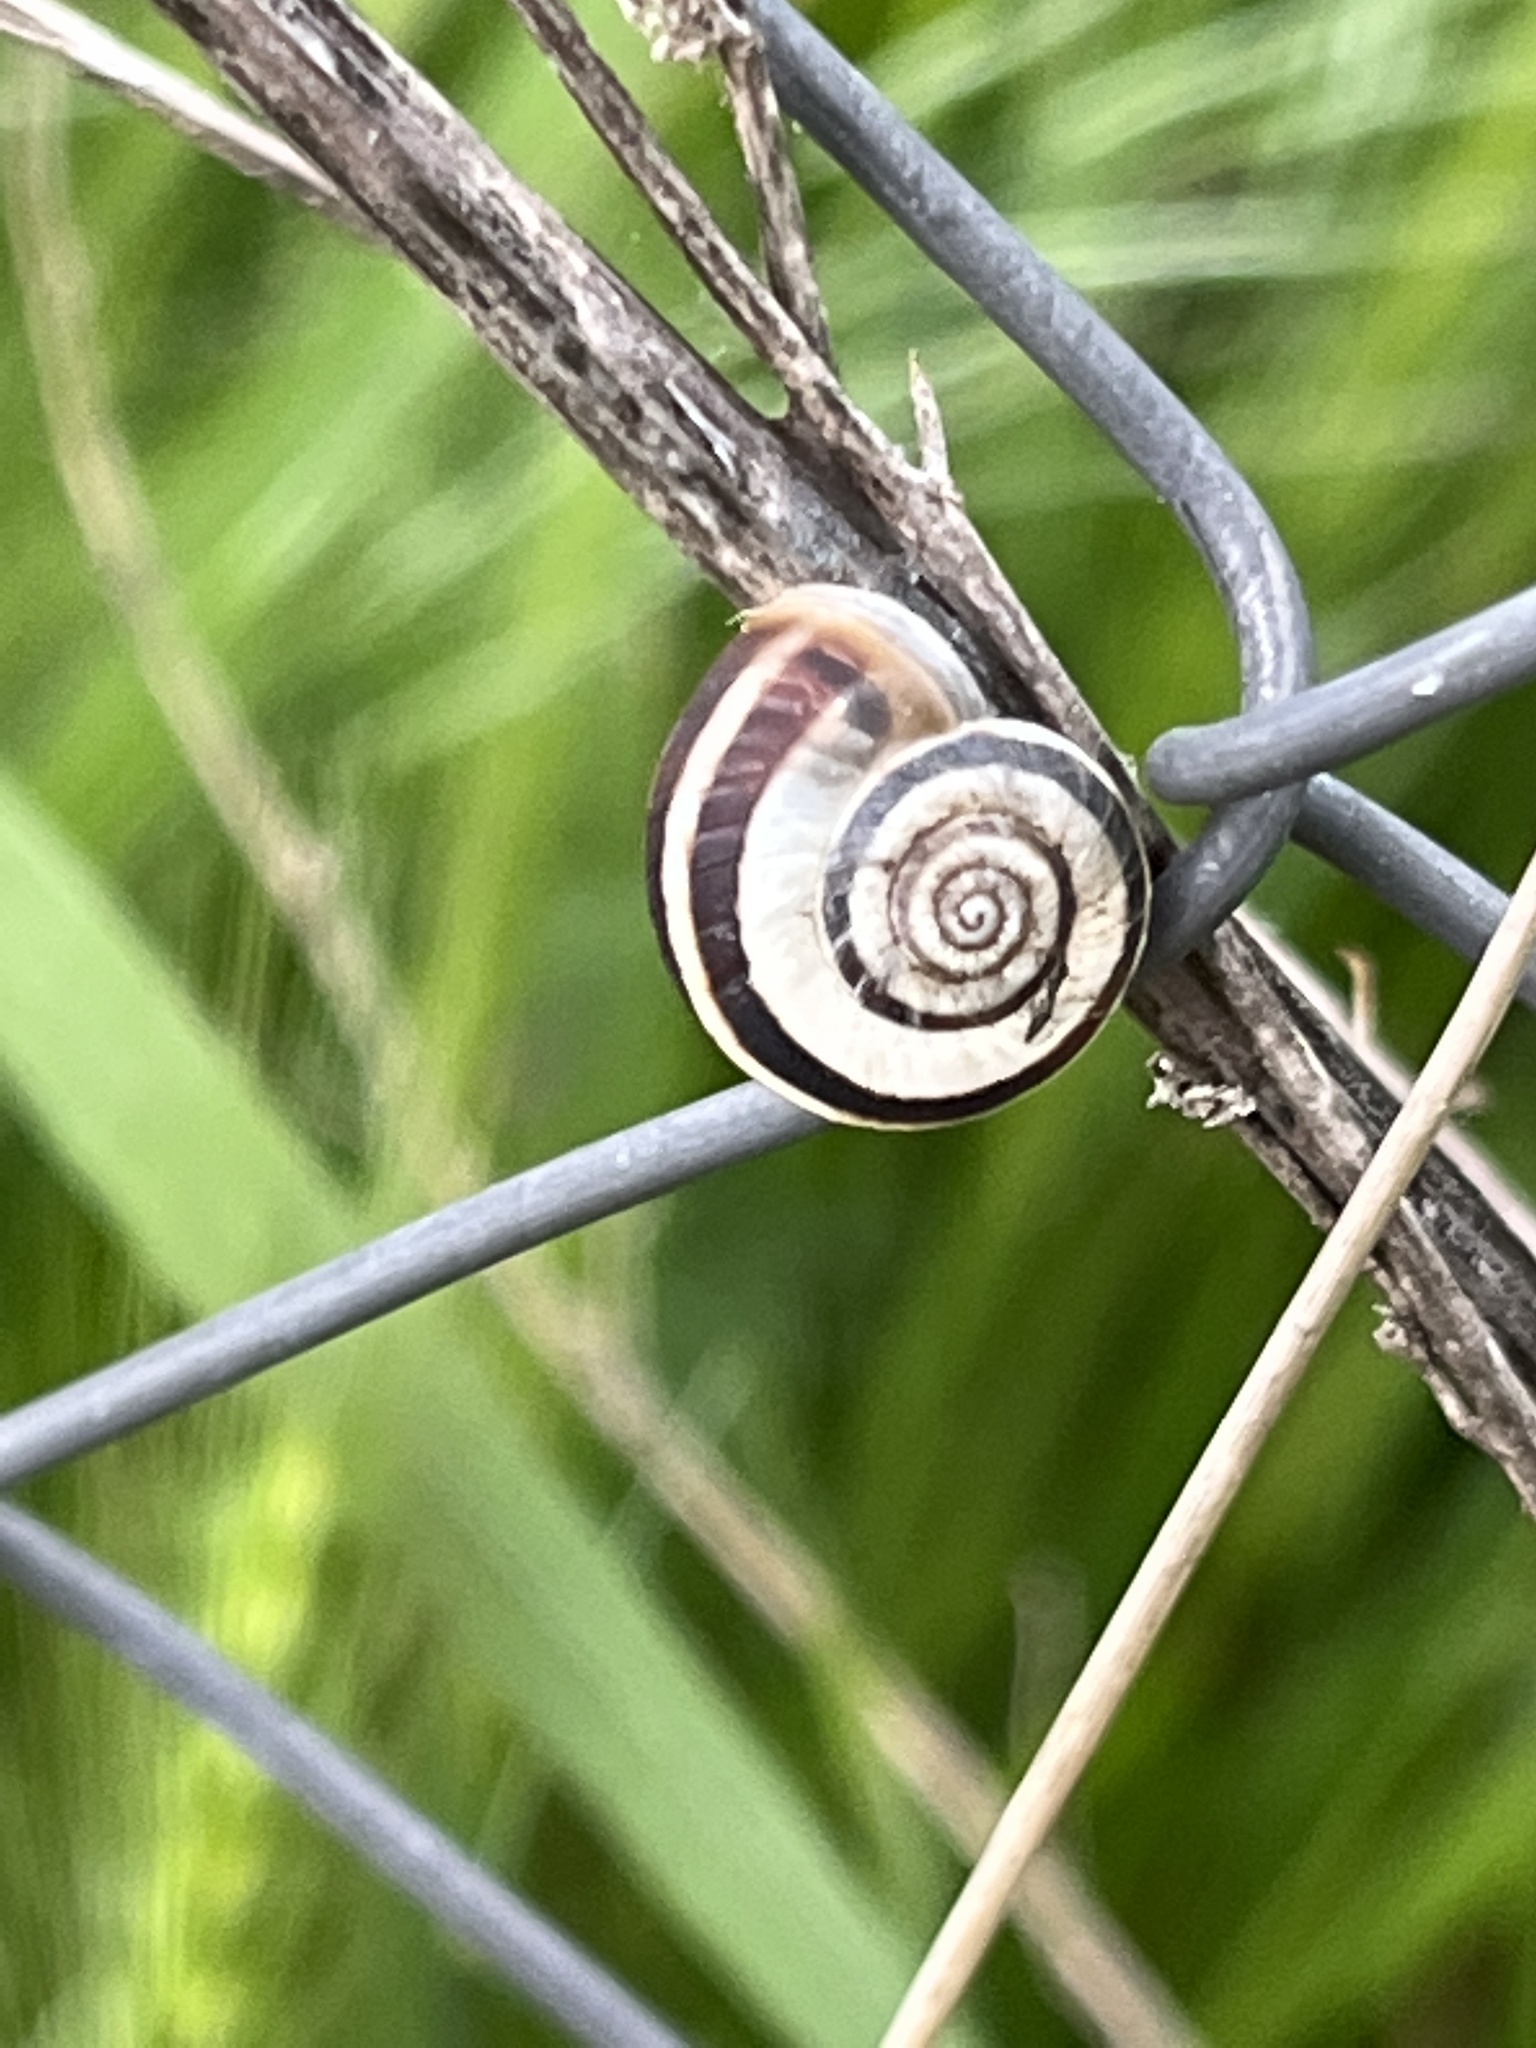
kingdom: Animalia
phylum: Mollusca
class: Gastropoda
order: Stylommatophora
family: Geomitridae
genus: Xerolenta
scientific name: Xerolenta obvia
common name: White heath snail
